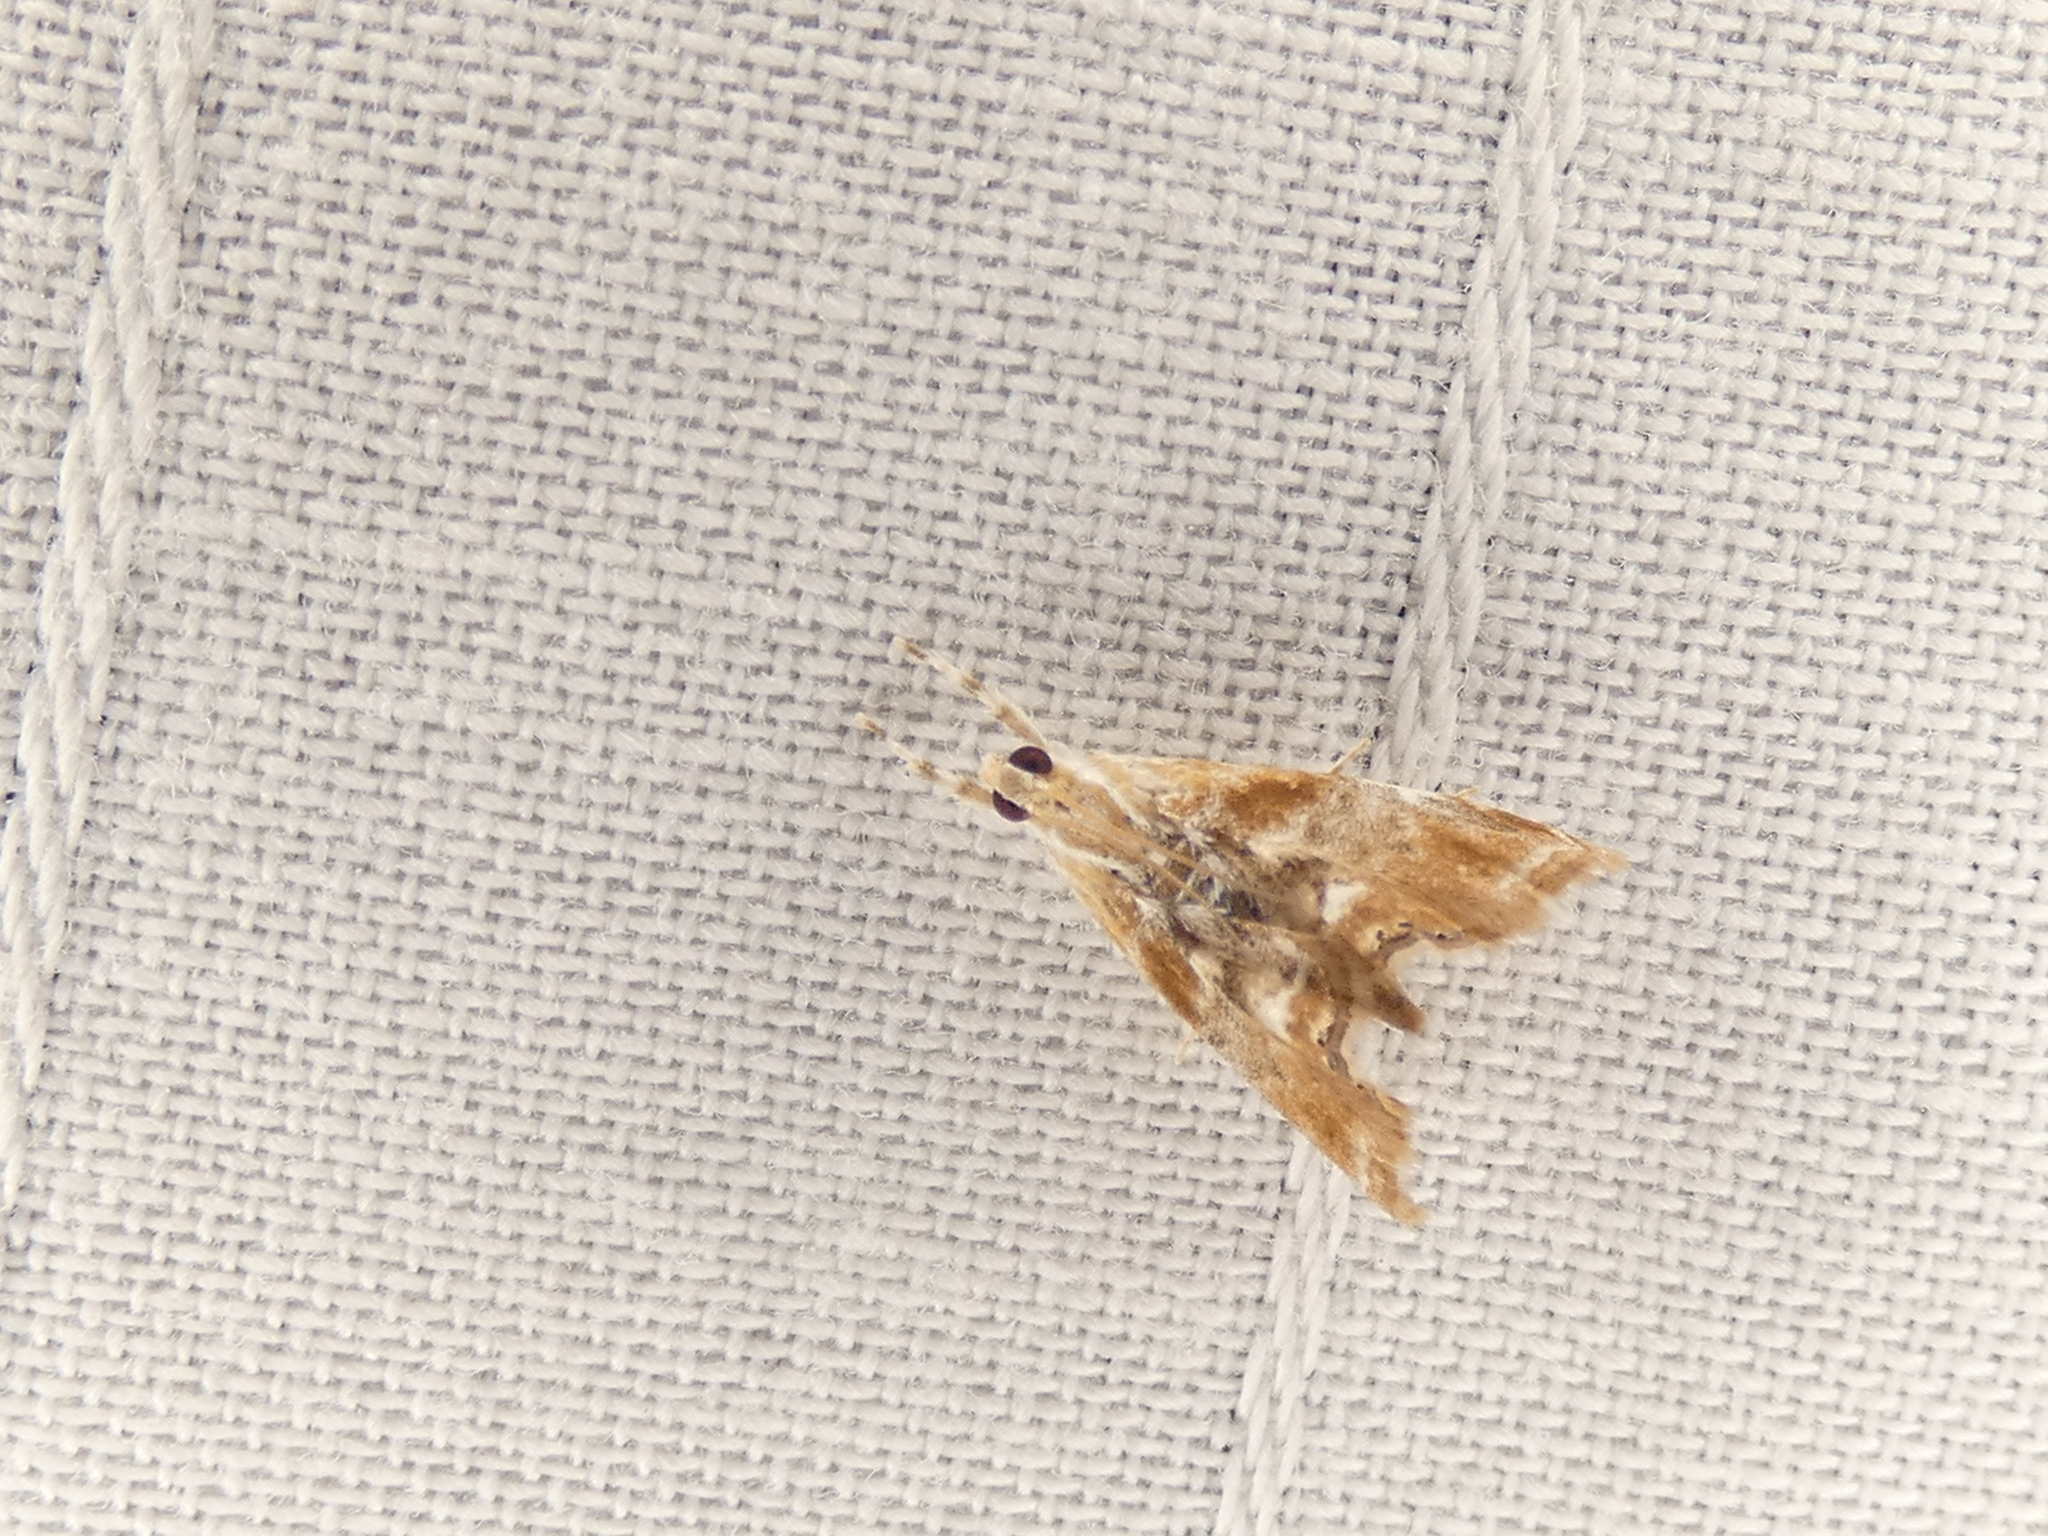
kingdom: Animalia
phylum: Arthropoda
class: Insecta
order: Lepidoptera
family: Crambidae
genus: Dicymolomia
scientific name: Dicymolomia julianalis
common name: Julia's dicymolomia moth
